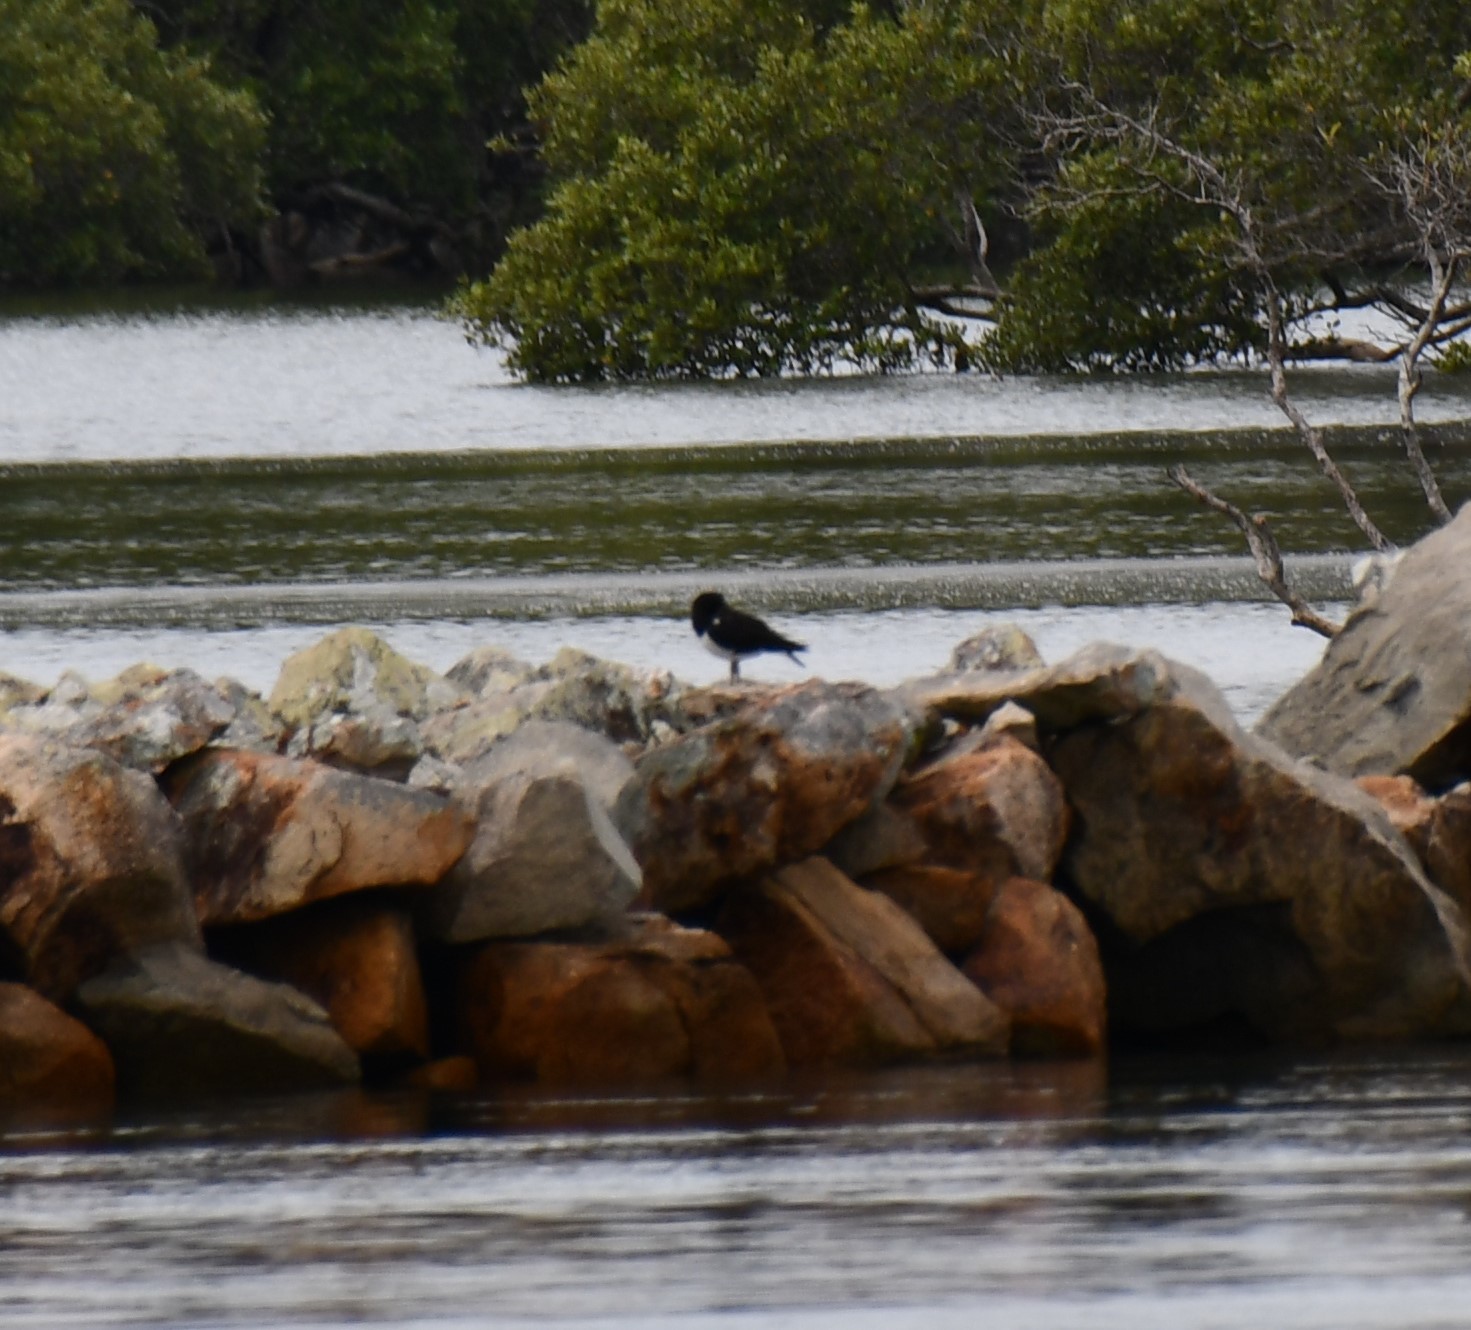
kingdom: Animalia
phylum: Chordata
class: Aves
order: Charadriiformes
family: Haematopodidae
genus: Haematopus
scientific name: Haematopus longirostris
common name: Pied oystercatcher
